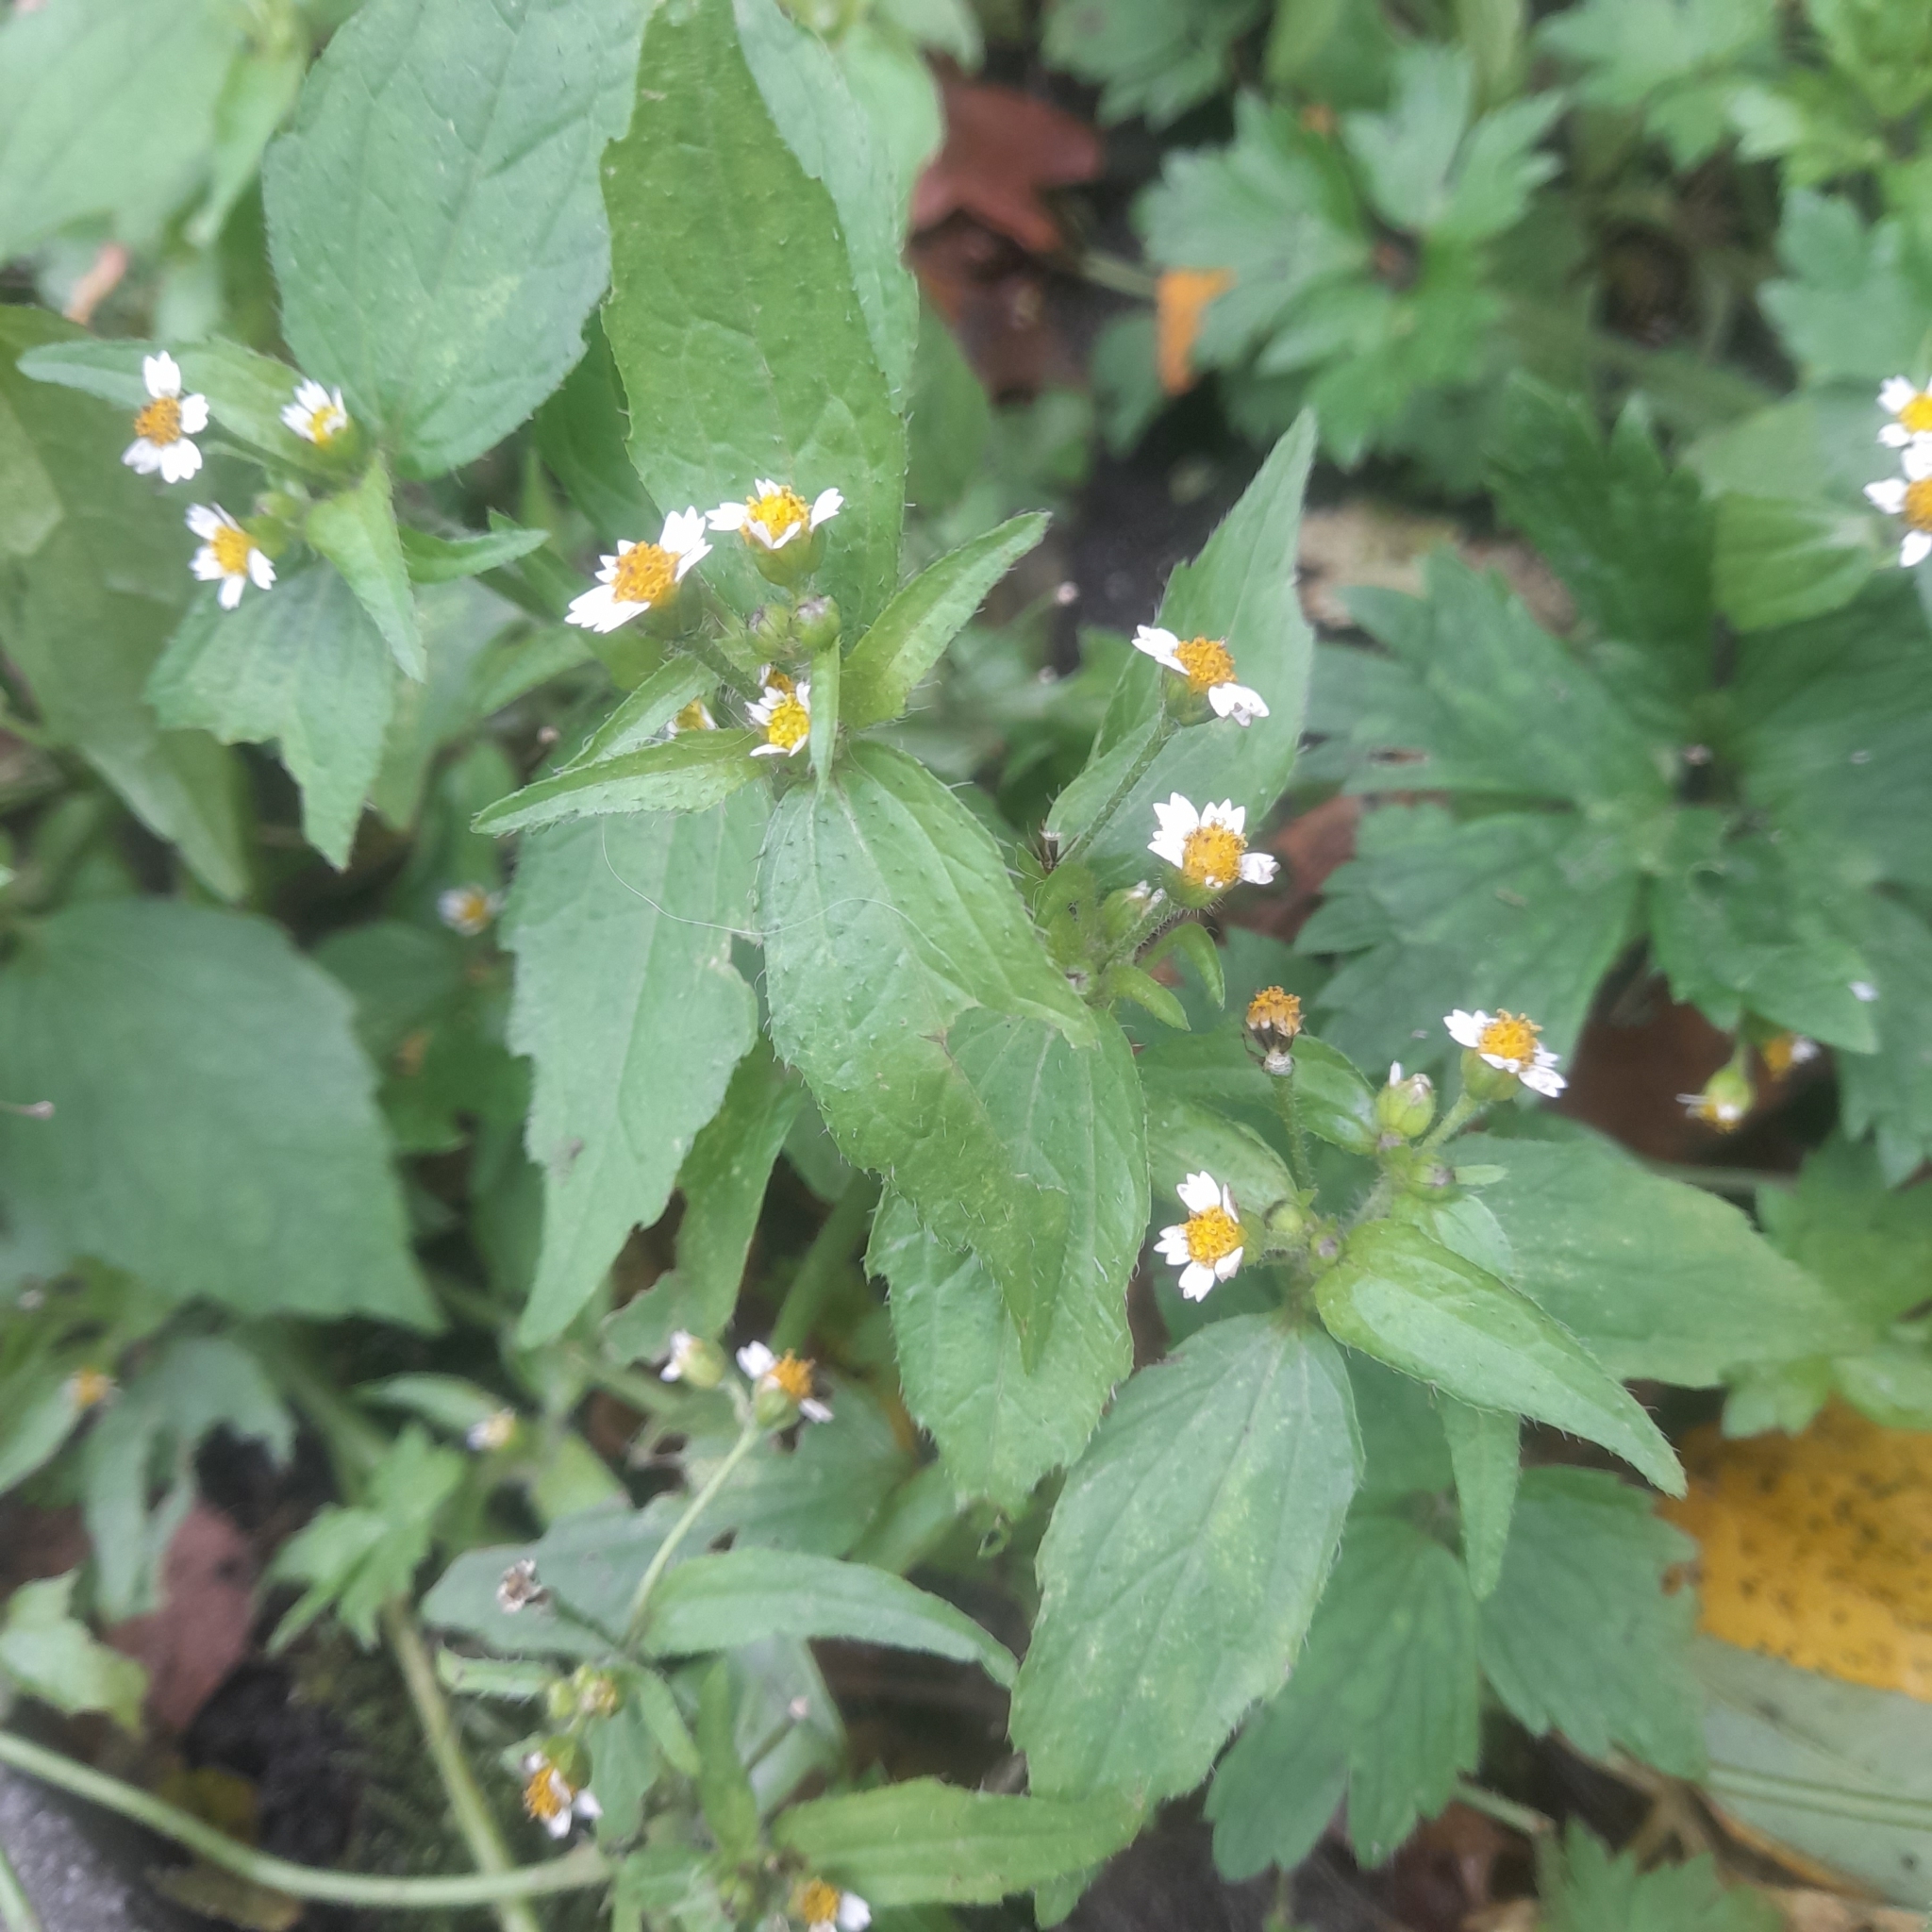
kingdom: Plantae
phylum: Tracheophyta
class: Magnoliopsida
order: Asterales
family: Asteraceae
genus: Galinsoga
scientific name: Galinsoga quadriradiata
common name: Shaggy soldier
